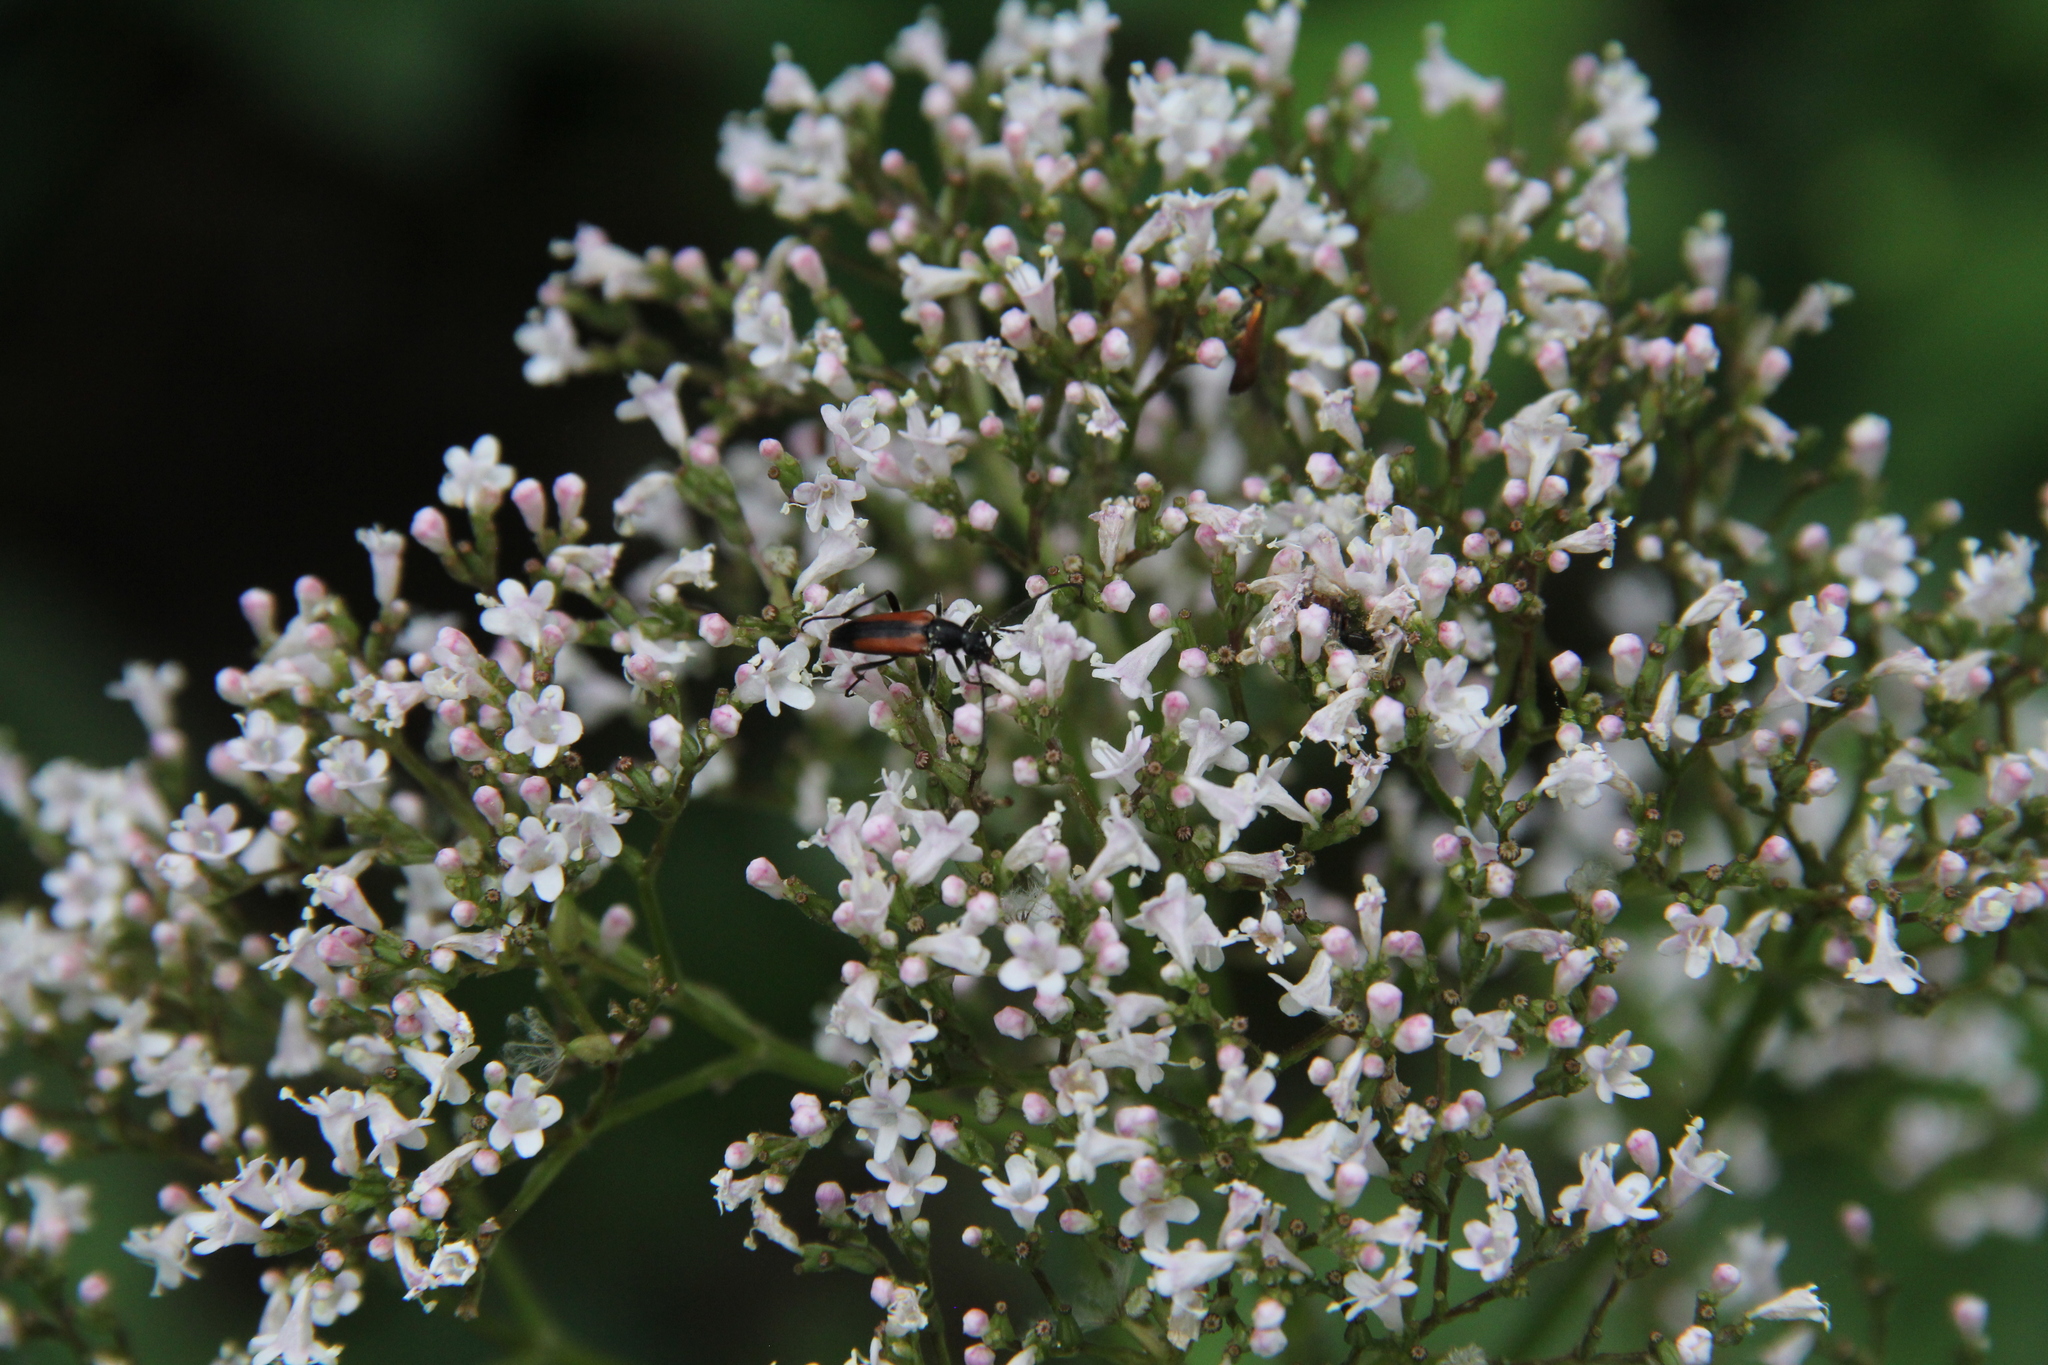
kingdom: Animalia
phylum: Arthropoda
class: Insecta
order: Coleoptera
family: Cerambycidae
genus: Stenurella
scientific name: Stenurella melanura
